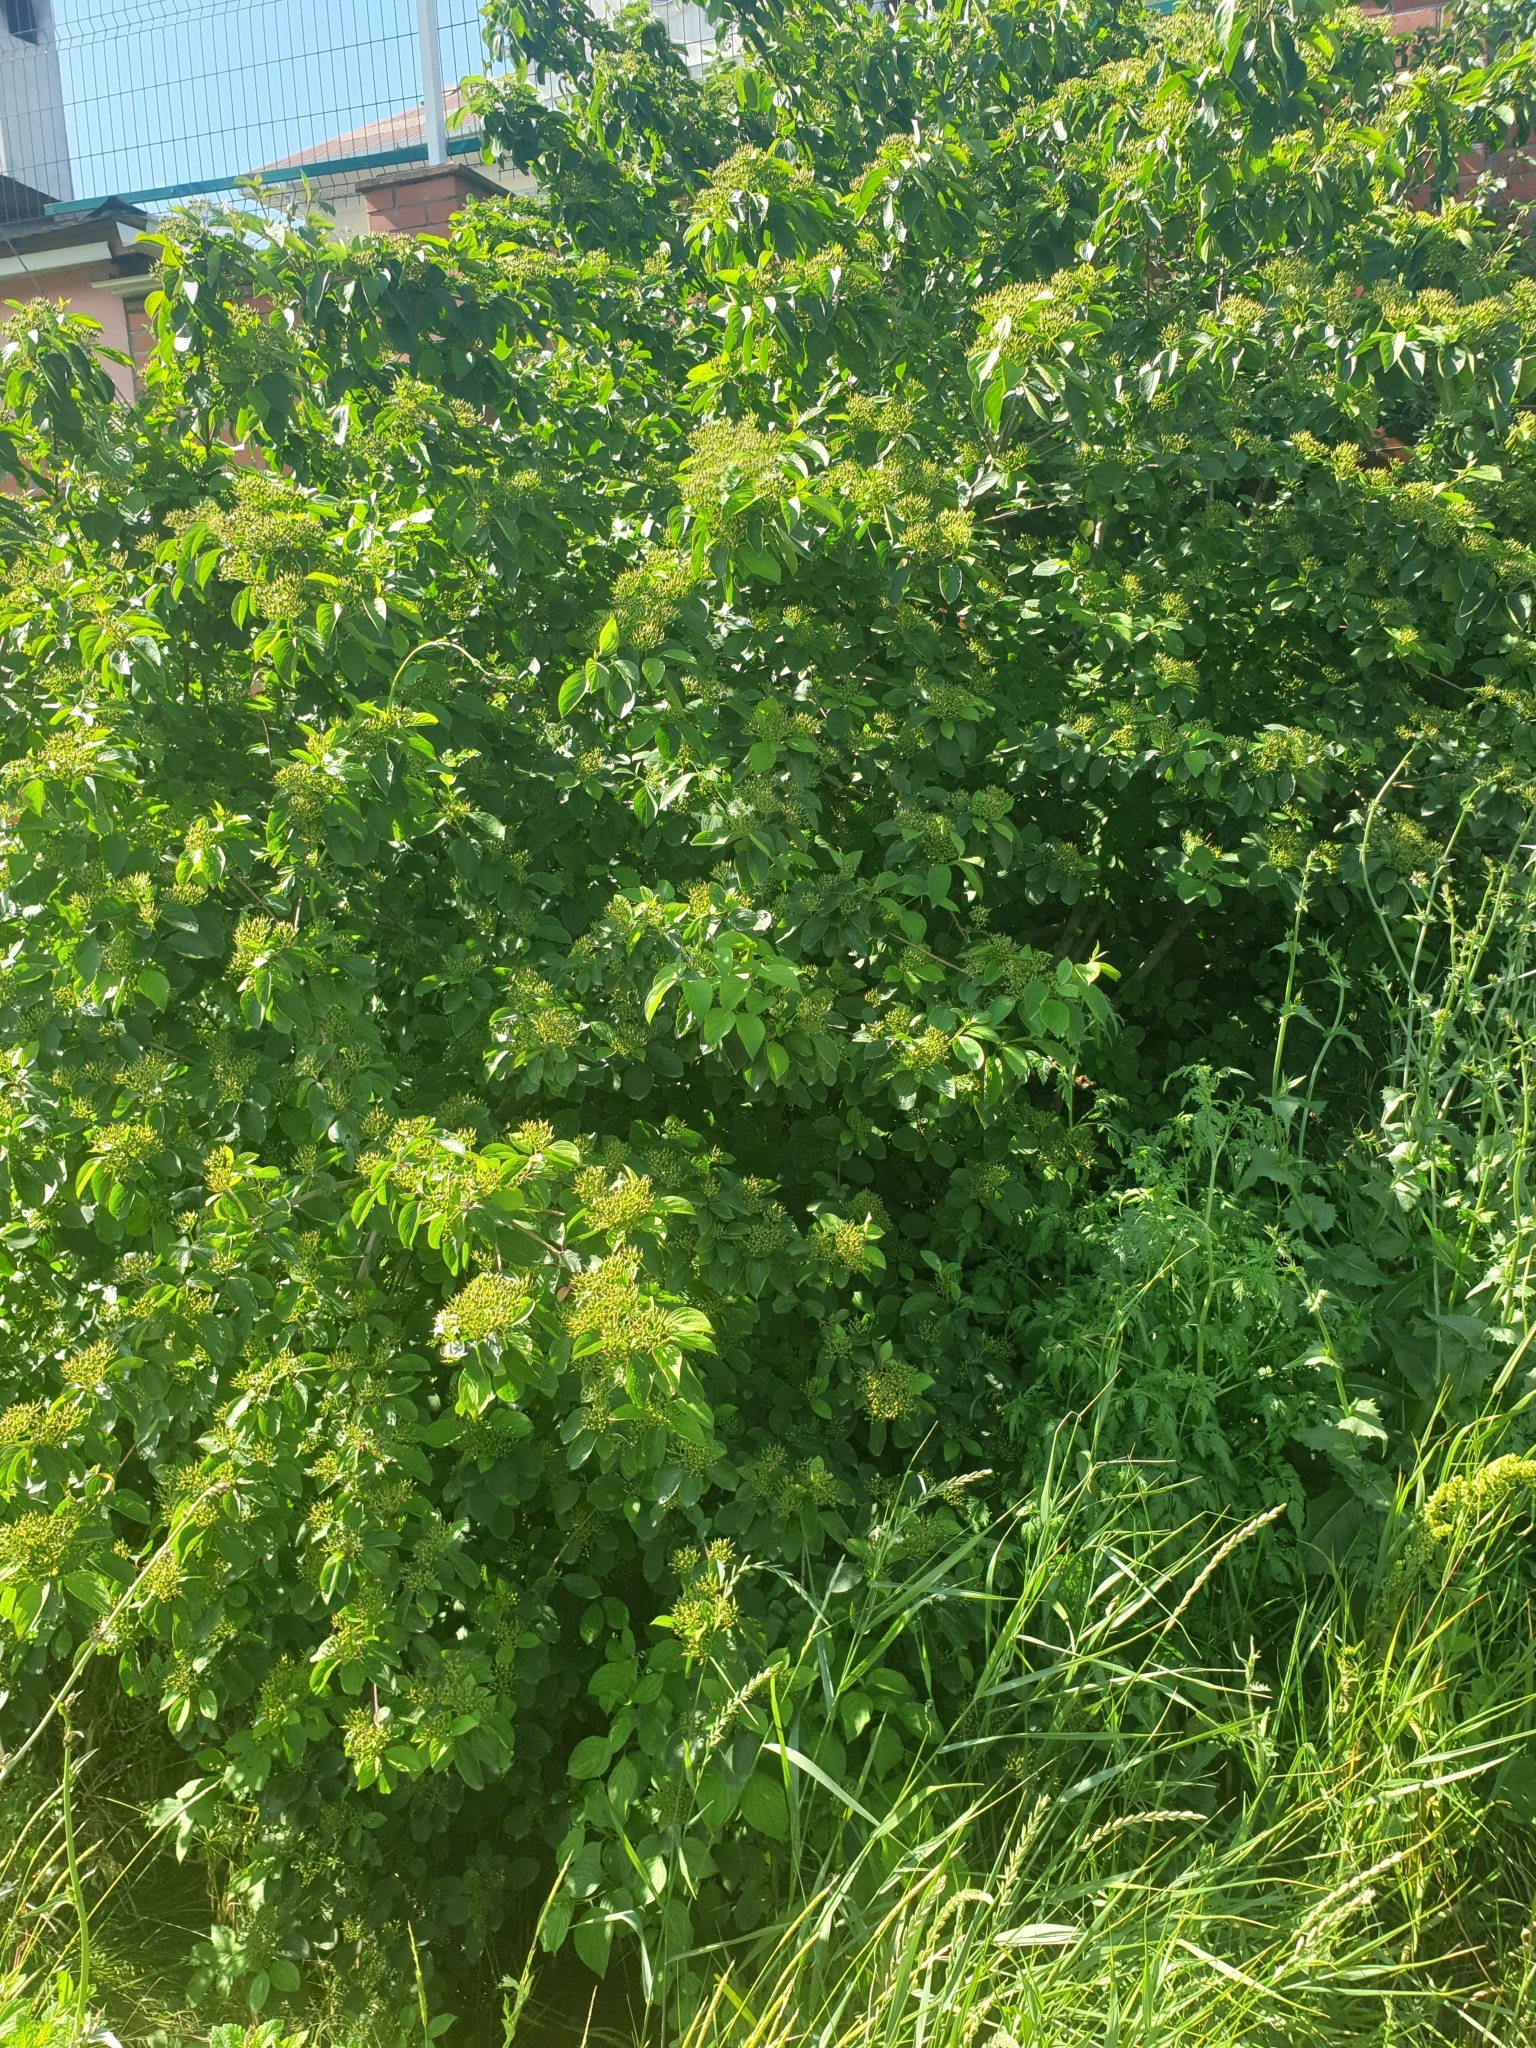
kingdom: Plantae
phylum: Tracheophyta
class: Magnoliopsida
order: Cornales
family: Cornaceae
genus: Cornus
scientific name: Cornus sanguinea
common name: Dogwood
